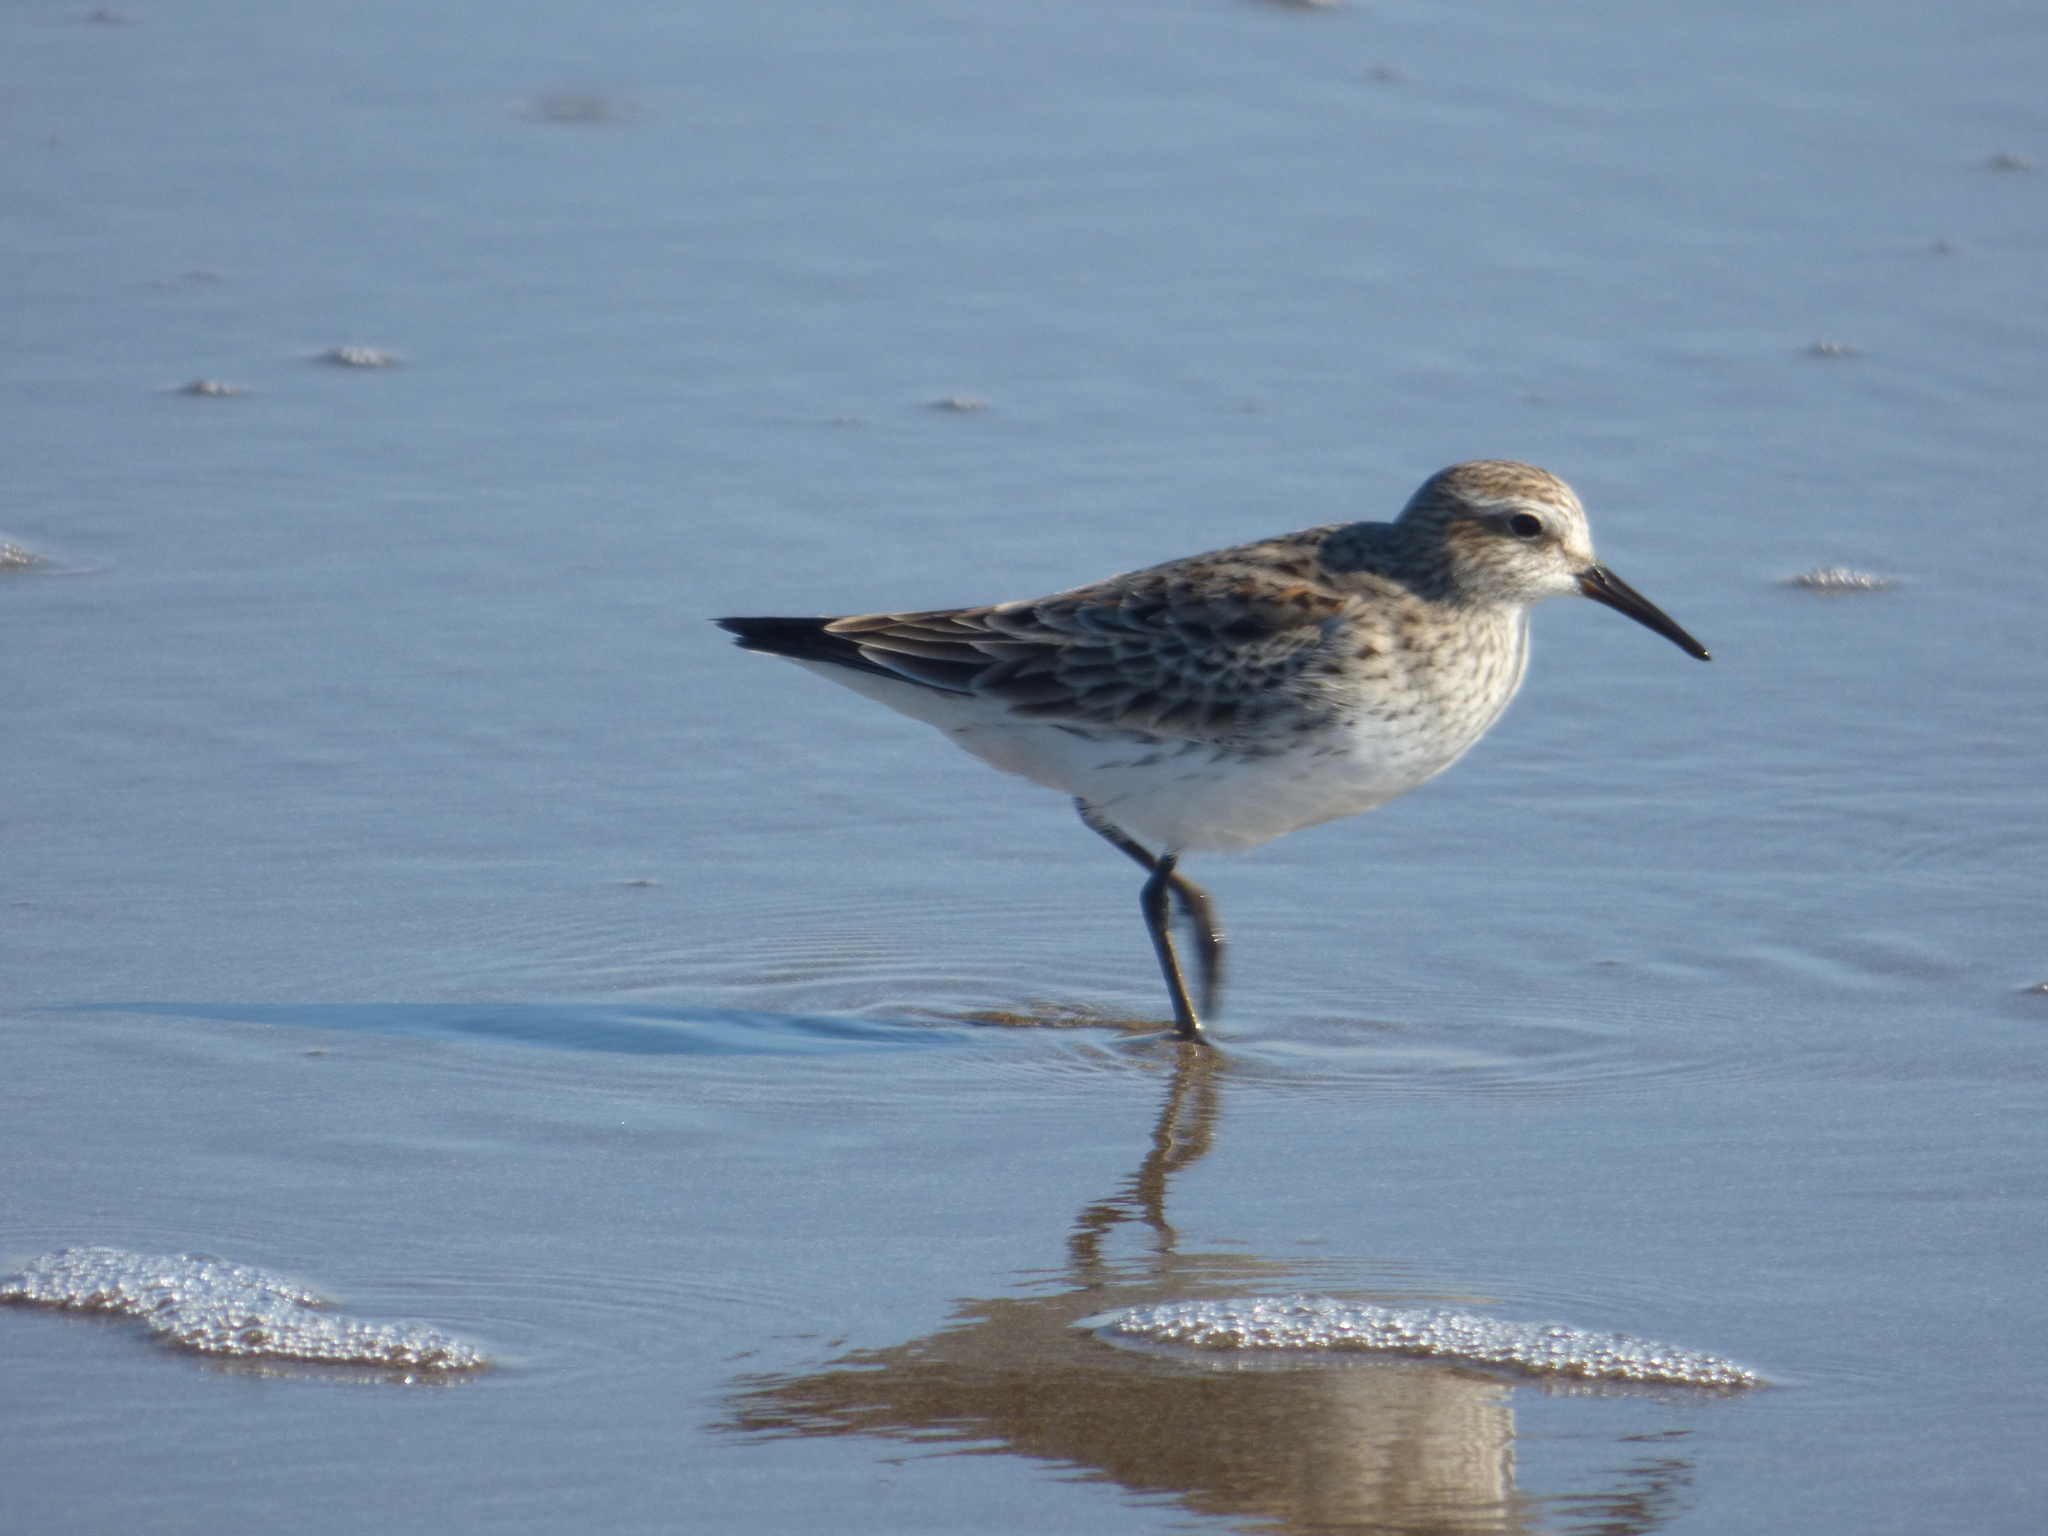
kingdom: Animalia
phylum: Chordata
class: Aves
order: Charadriiformes
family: Scolopacidae
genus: Calidris
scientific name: Calidris fuscicollis
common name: White-rumped sandpiper
